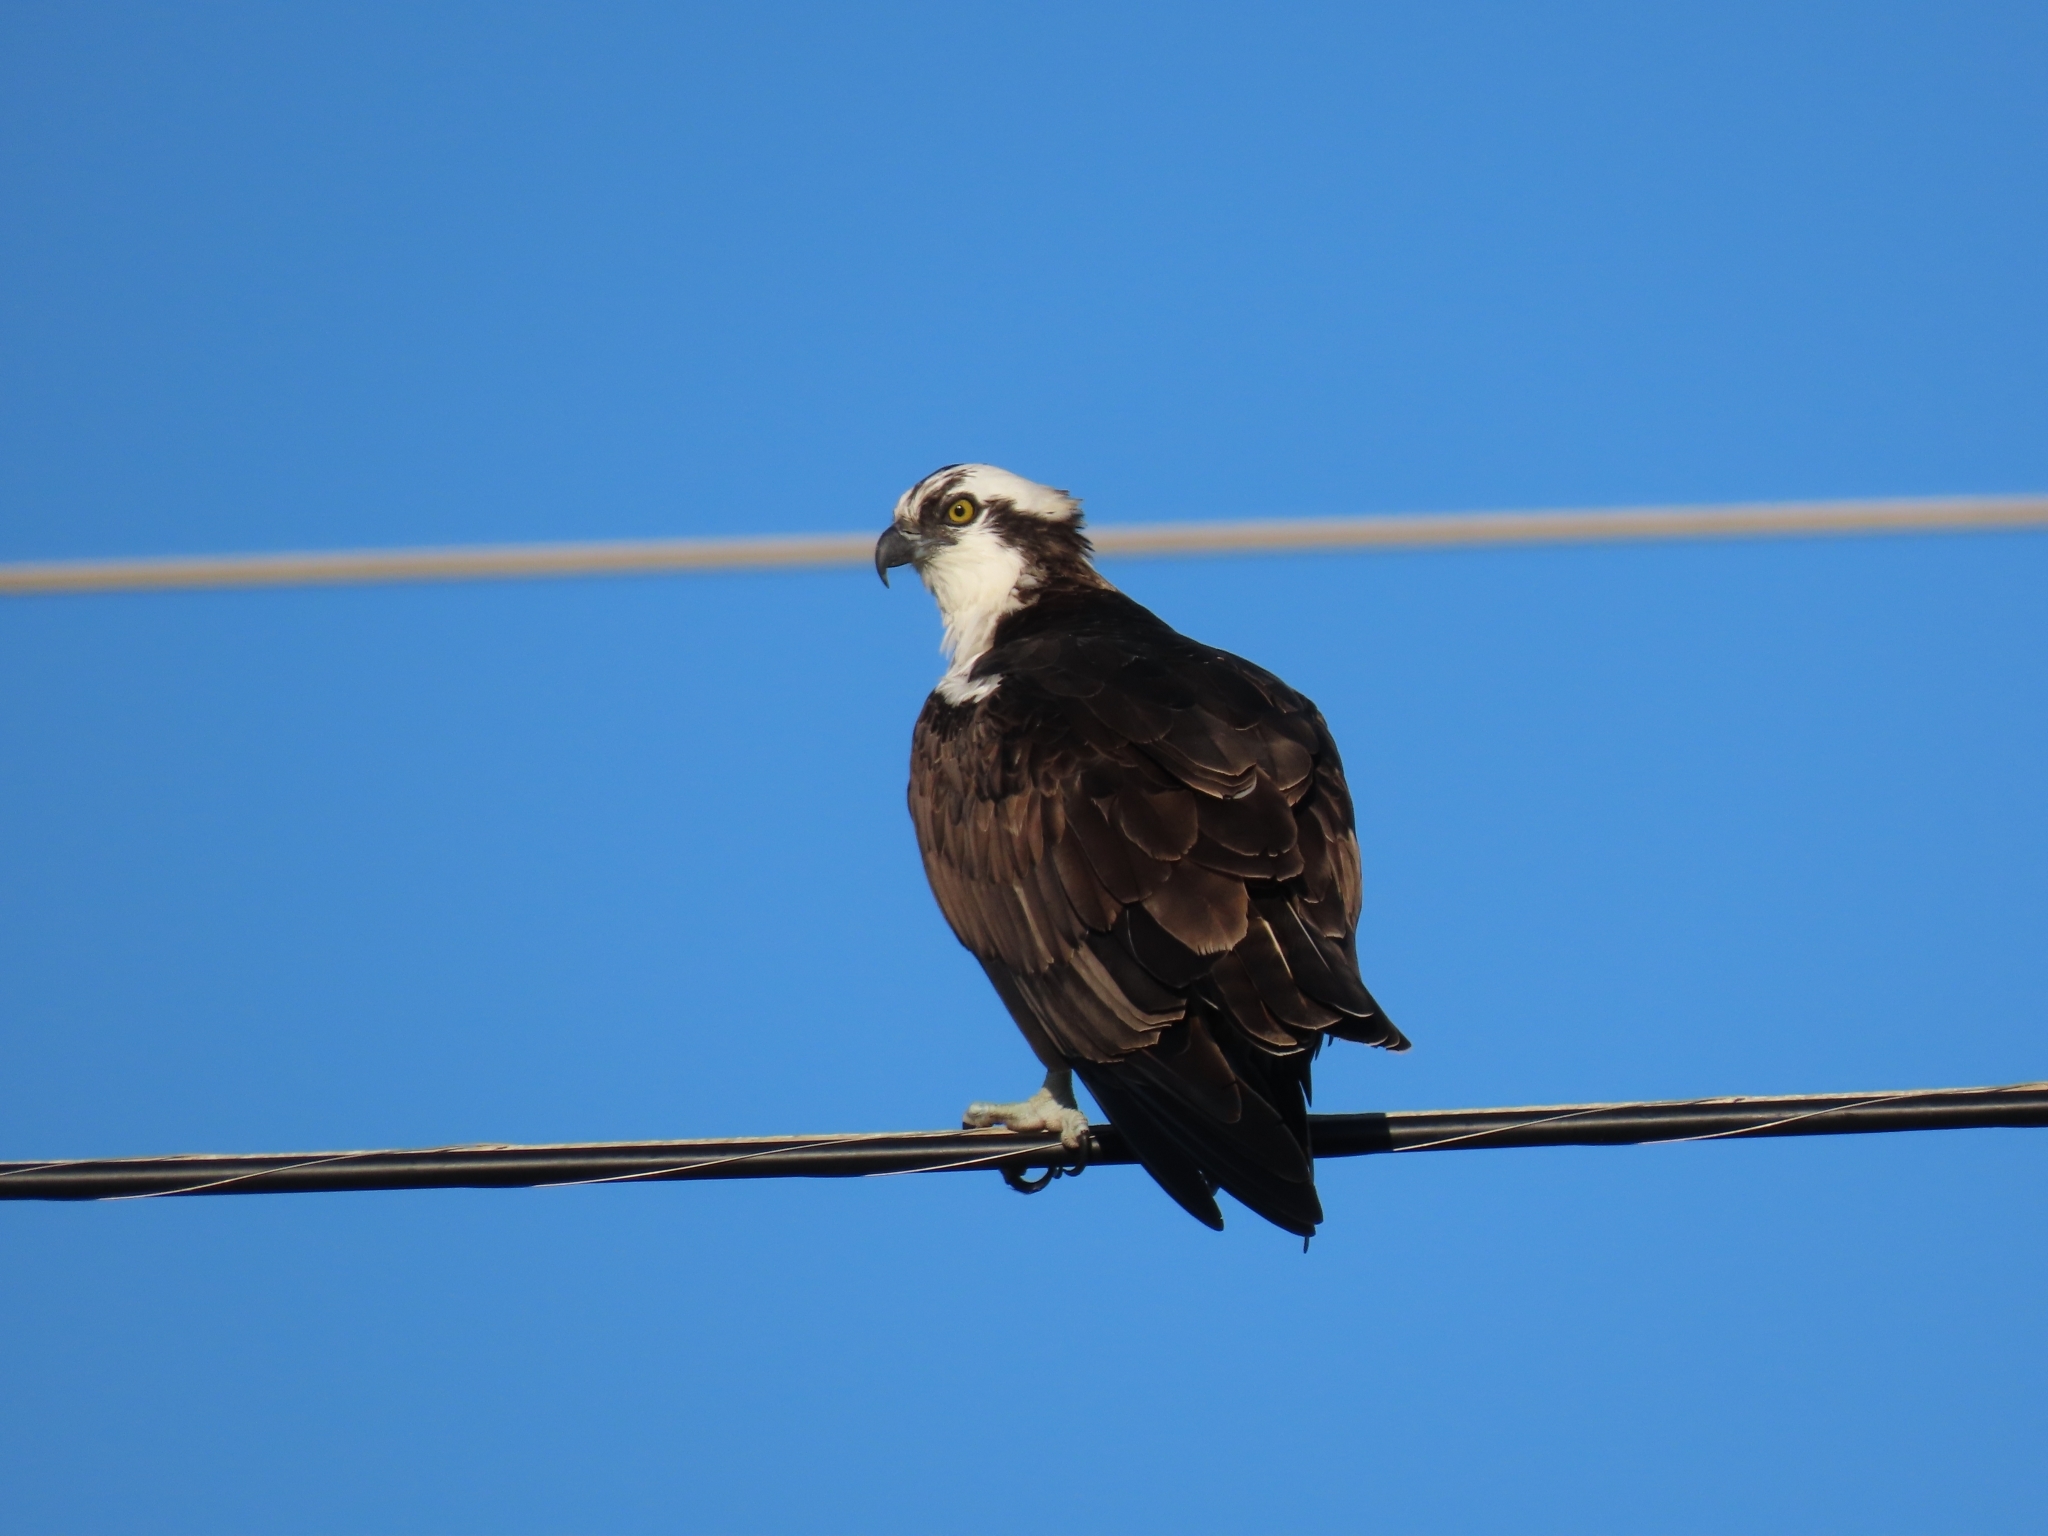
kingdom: Animalia
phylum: Chordata
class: Aves
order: Accipitriformes
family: Pandionidae
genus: Pandion
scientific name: Pandion haliaetus
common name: Osprey
